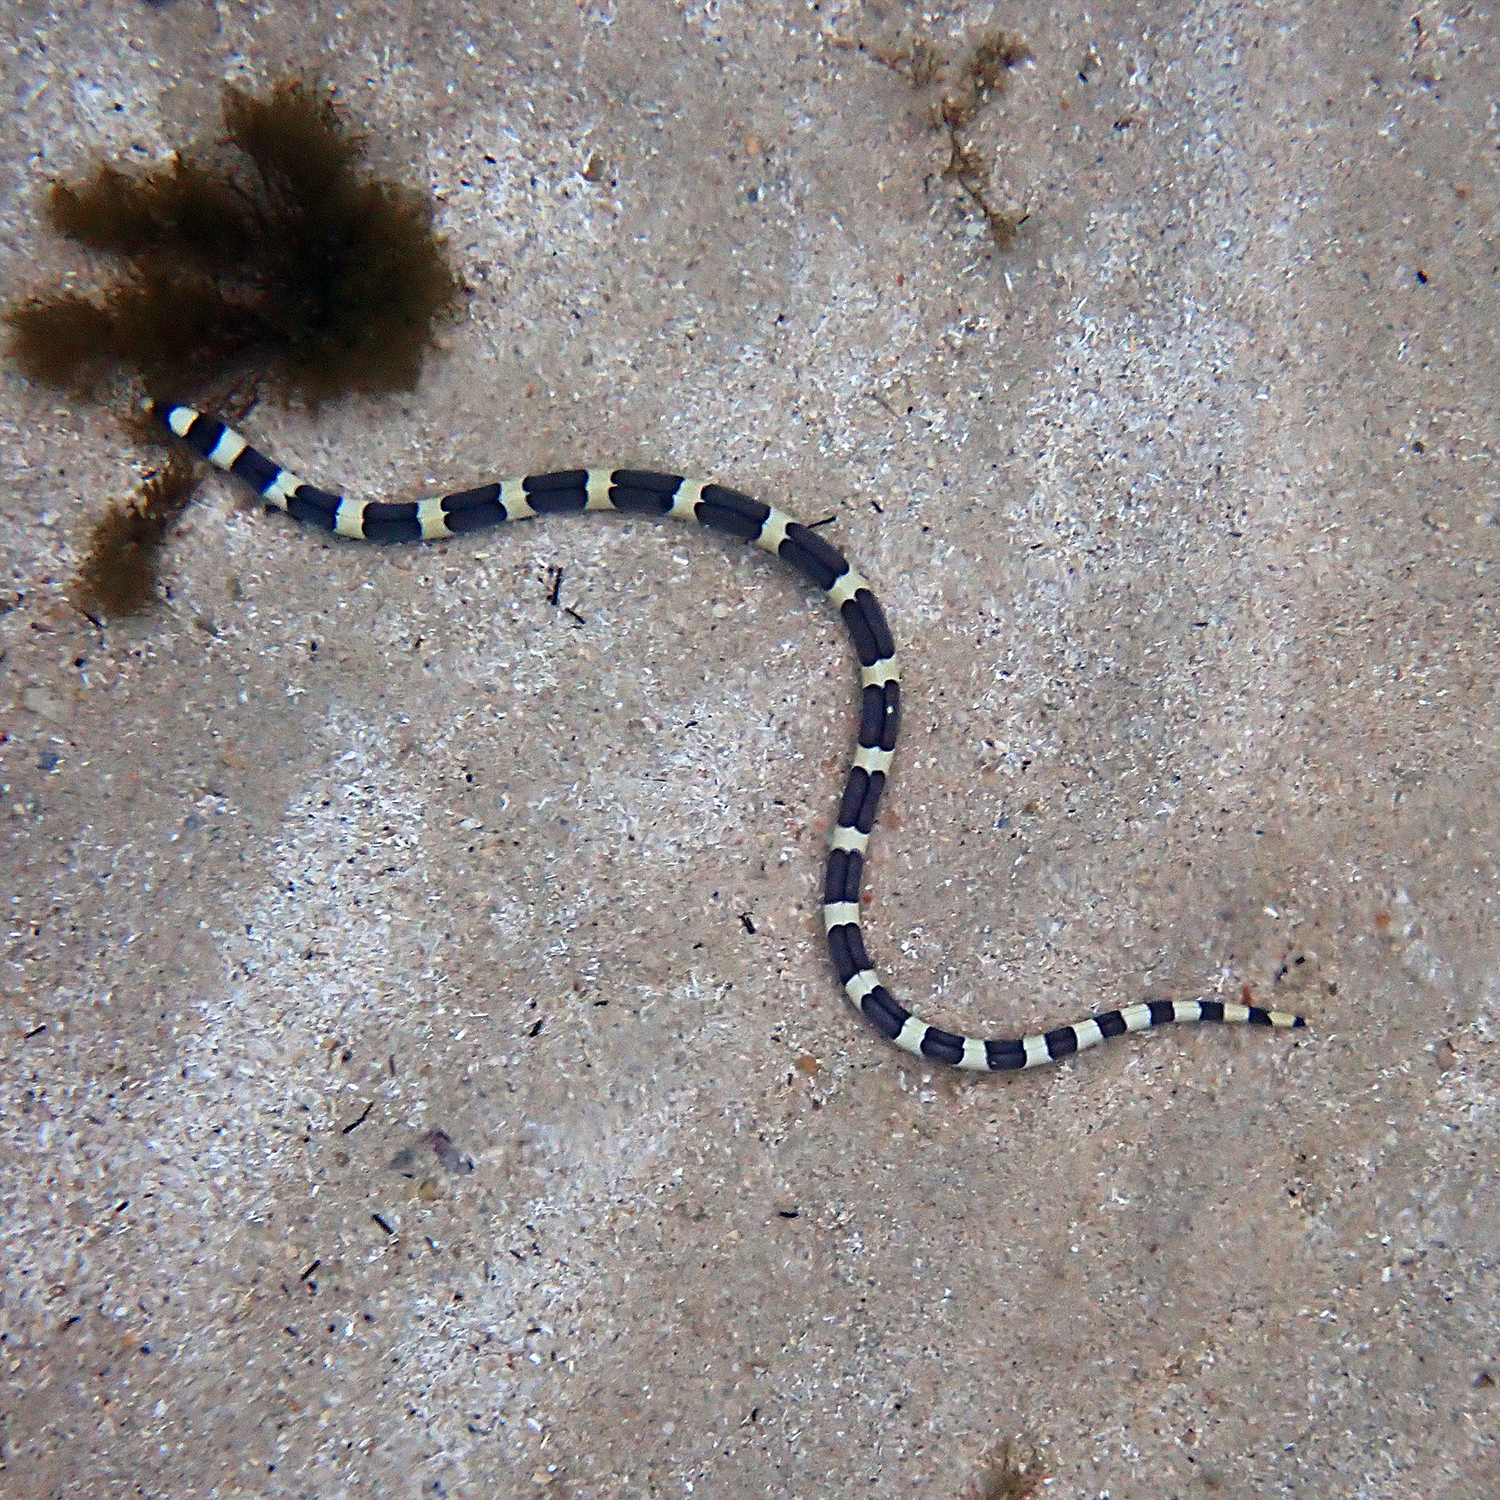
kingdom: Animalia
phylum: Chordata
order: Anguilliformes
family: Ophichthidae
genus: Leiuranus
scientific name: Leiuranus semicinctus
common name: Saddled snake eel
